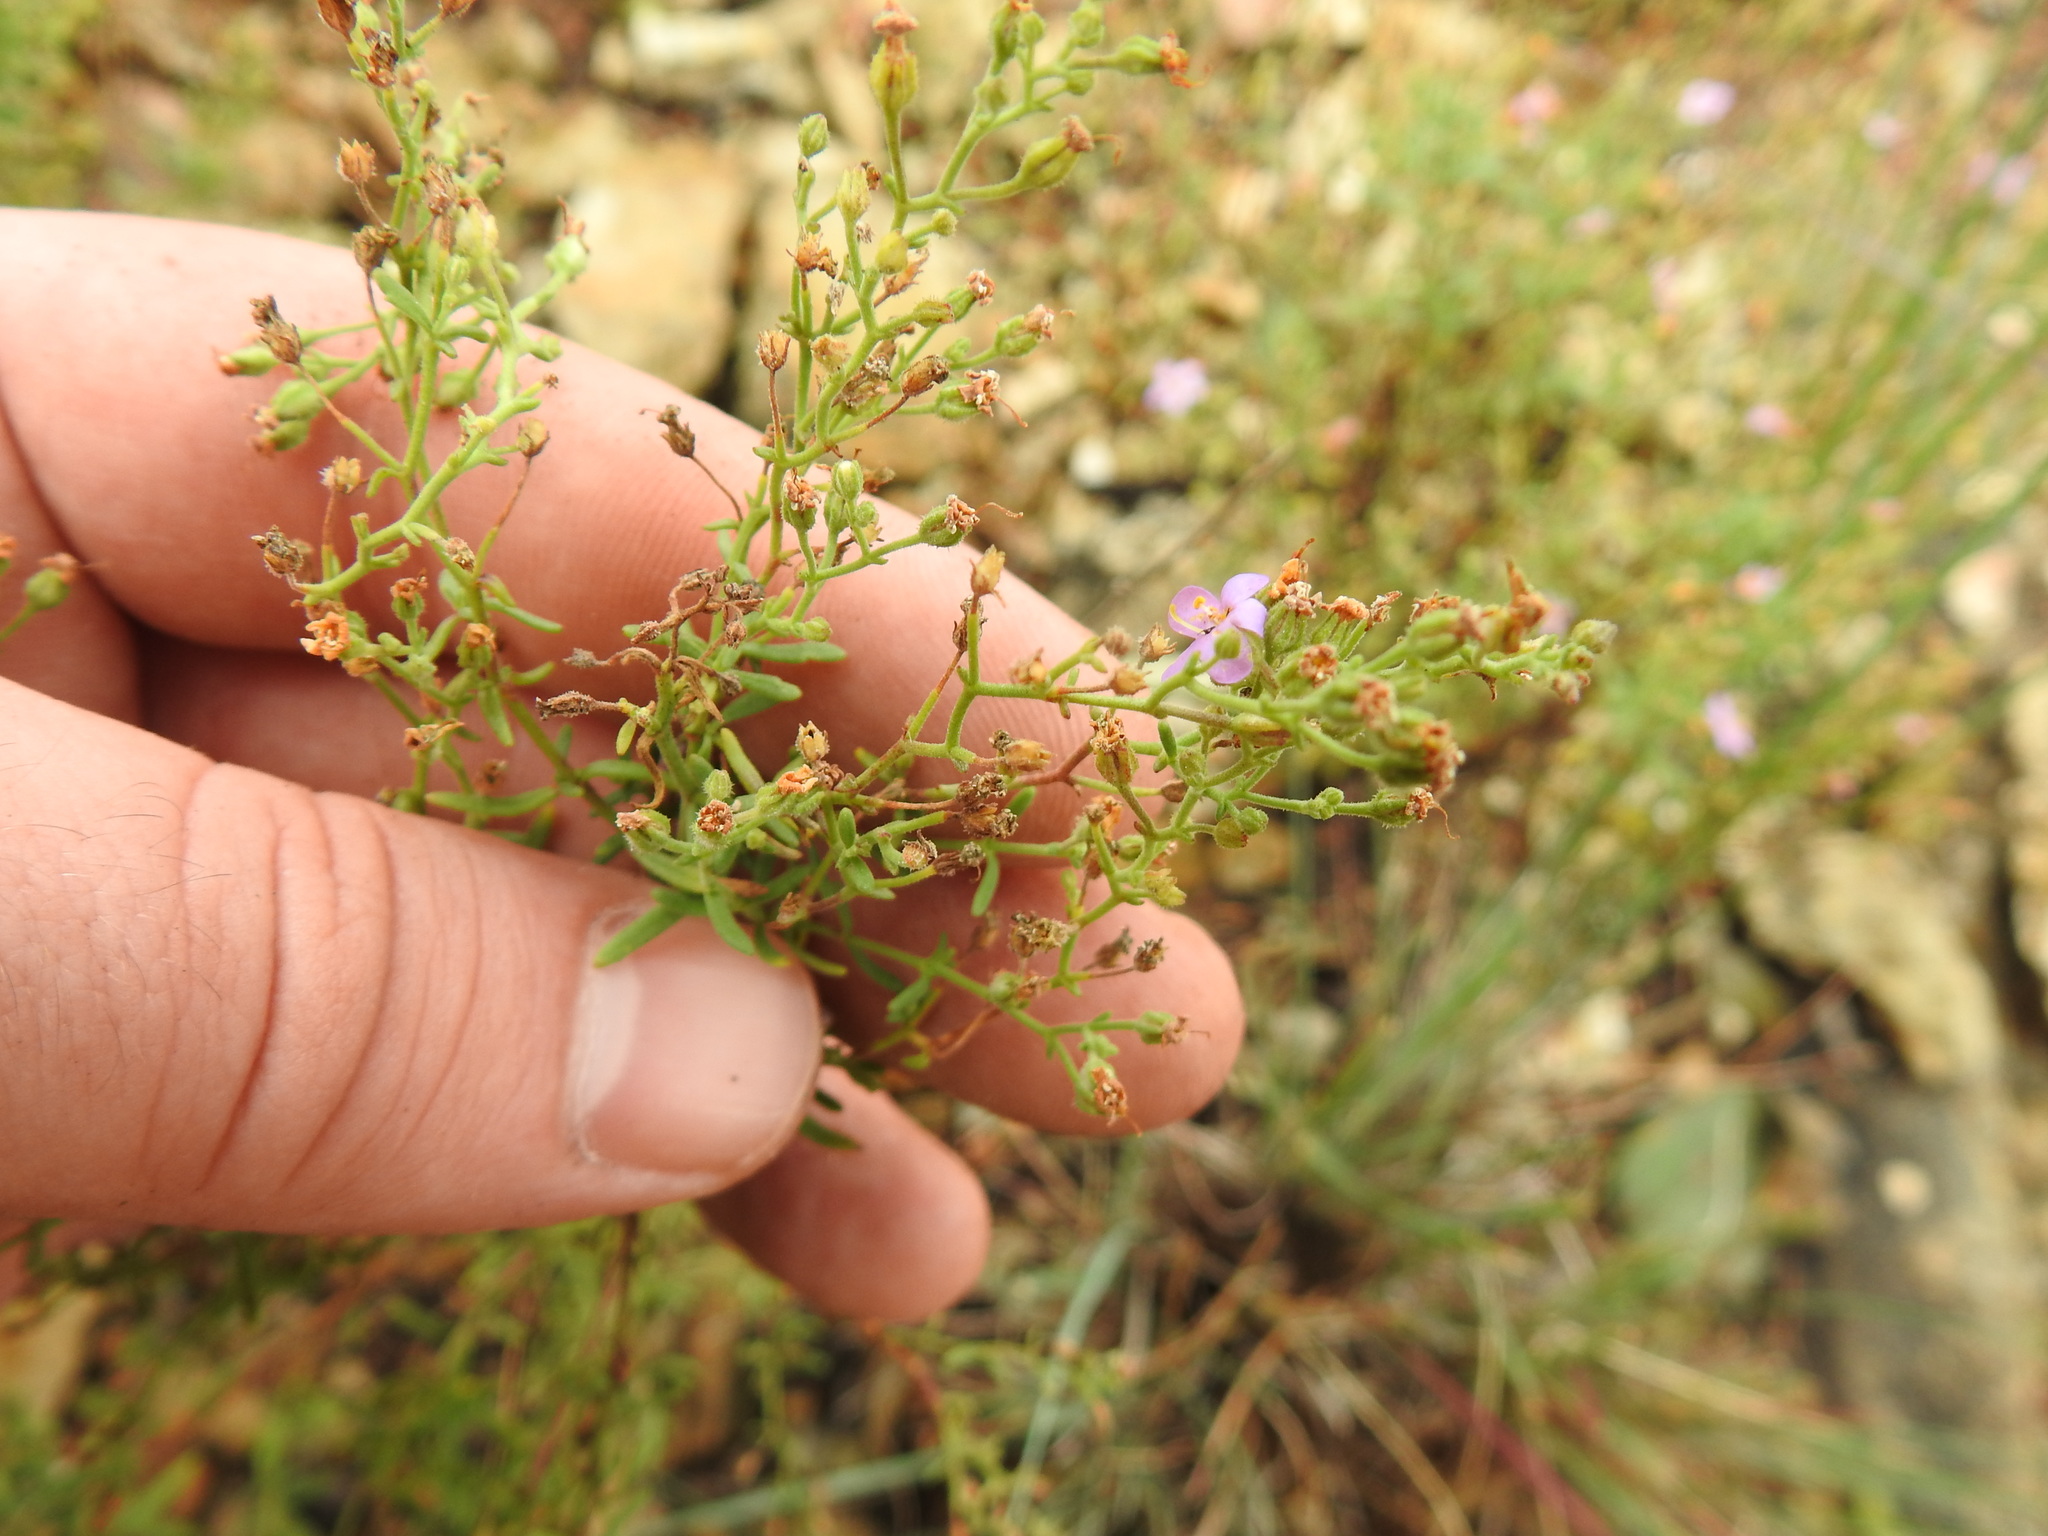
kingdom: Plantae
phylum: Tracheophyta
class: Magnoliopsida
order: Lamiales
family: Scrophulariaceae
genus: Chaenostoma
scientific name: Chaenostoma leve
